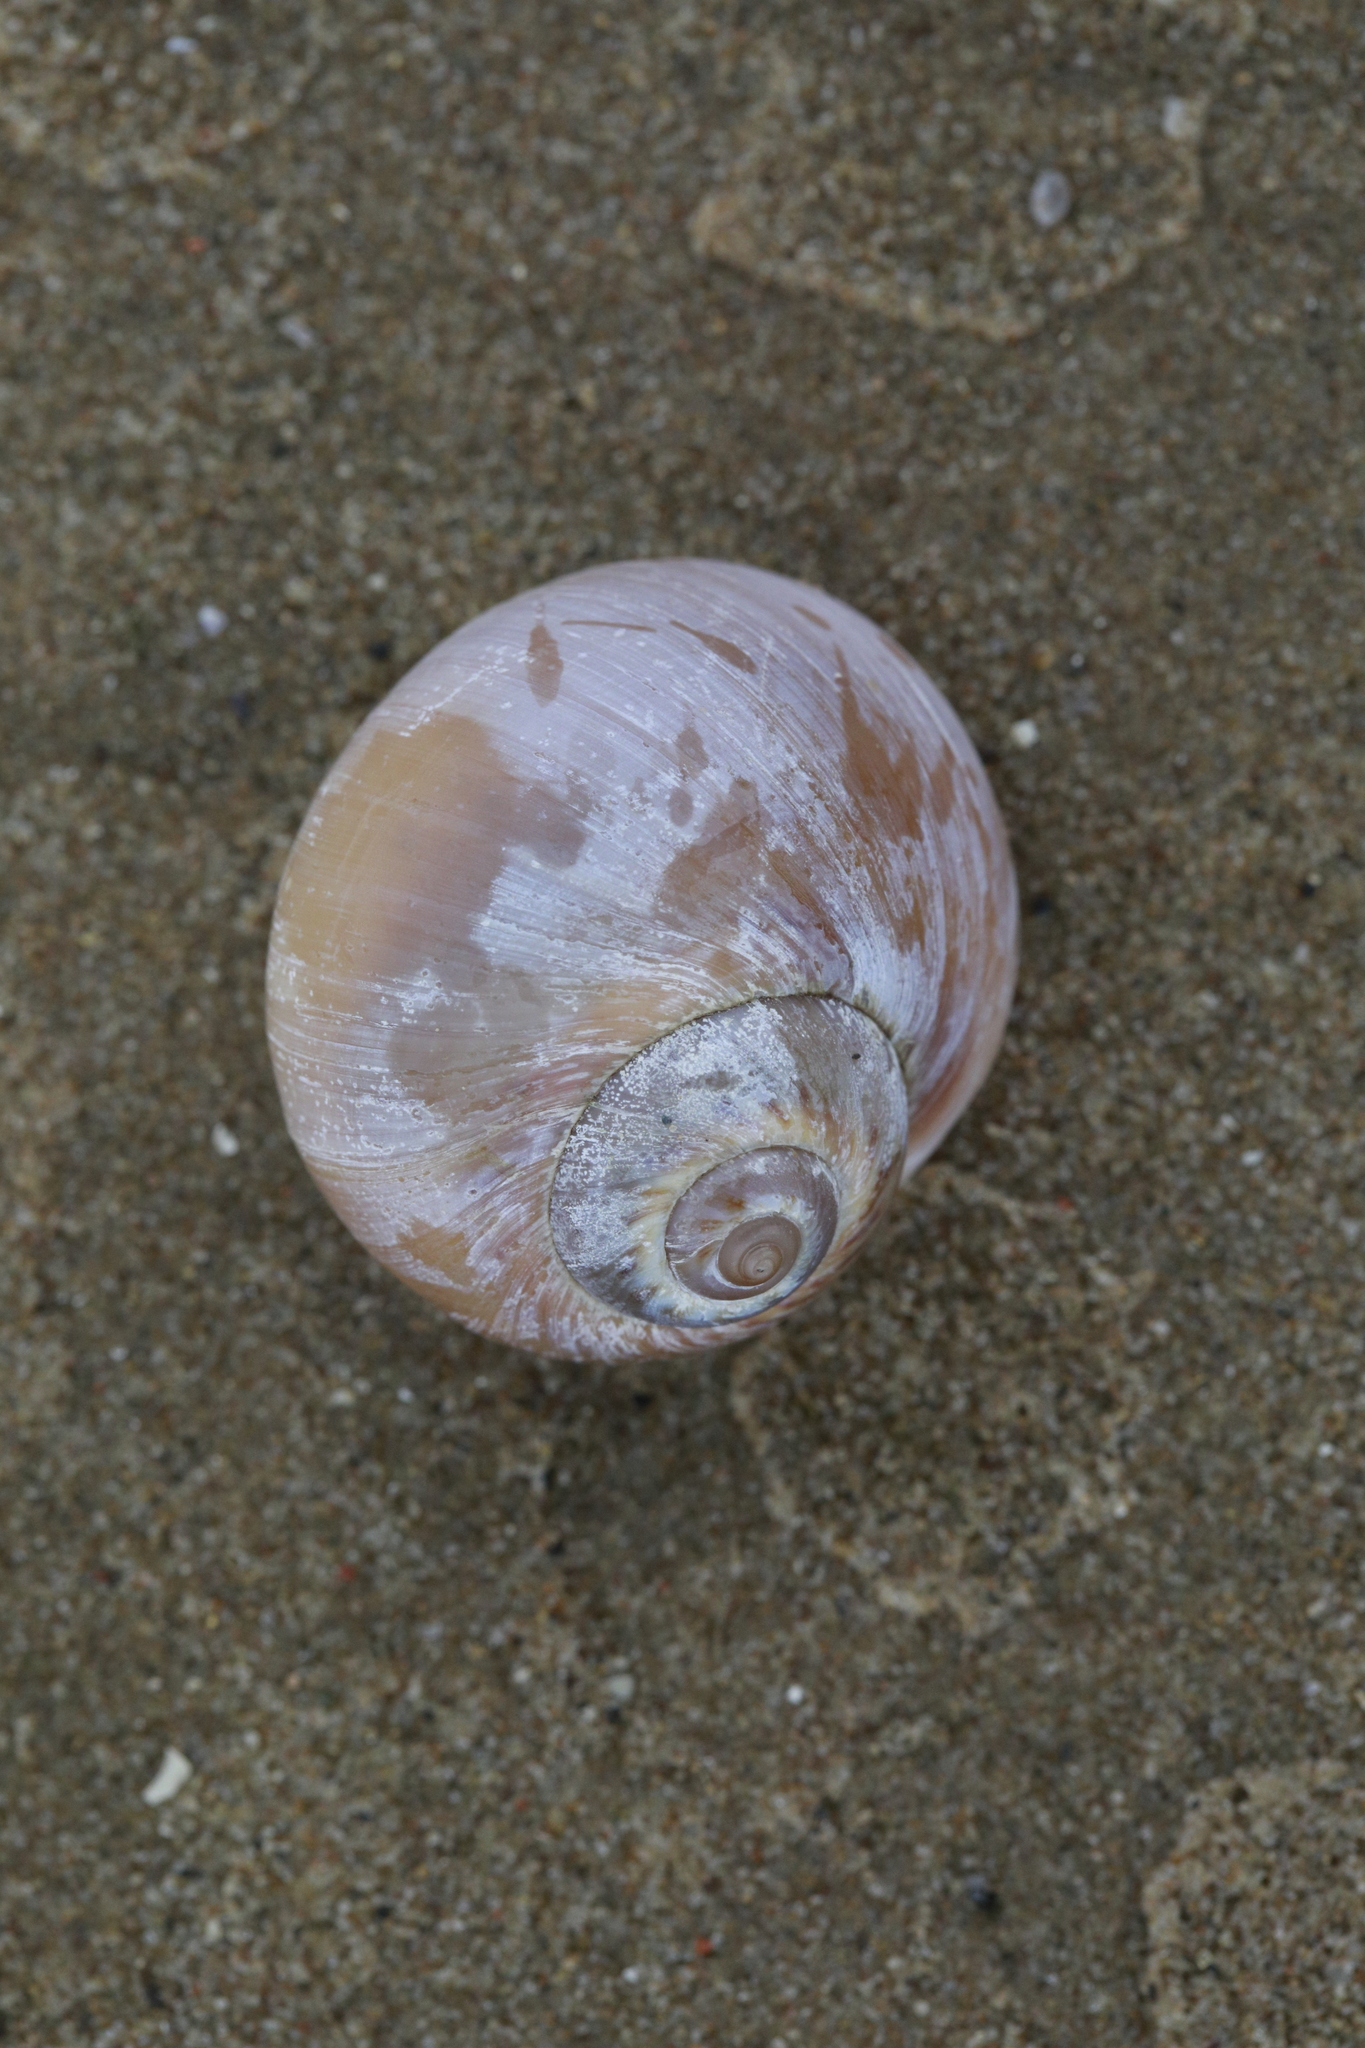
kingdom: Animalia
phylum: Mollusca
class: Gastropoda
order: Littorinimorpha
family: Naticidae
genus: Euspira
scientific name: Euspira catena
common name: Necklace shell
